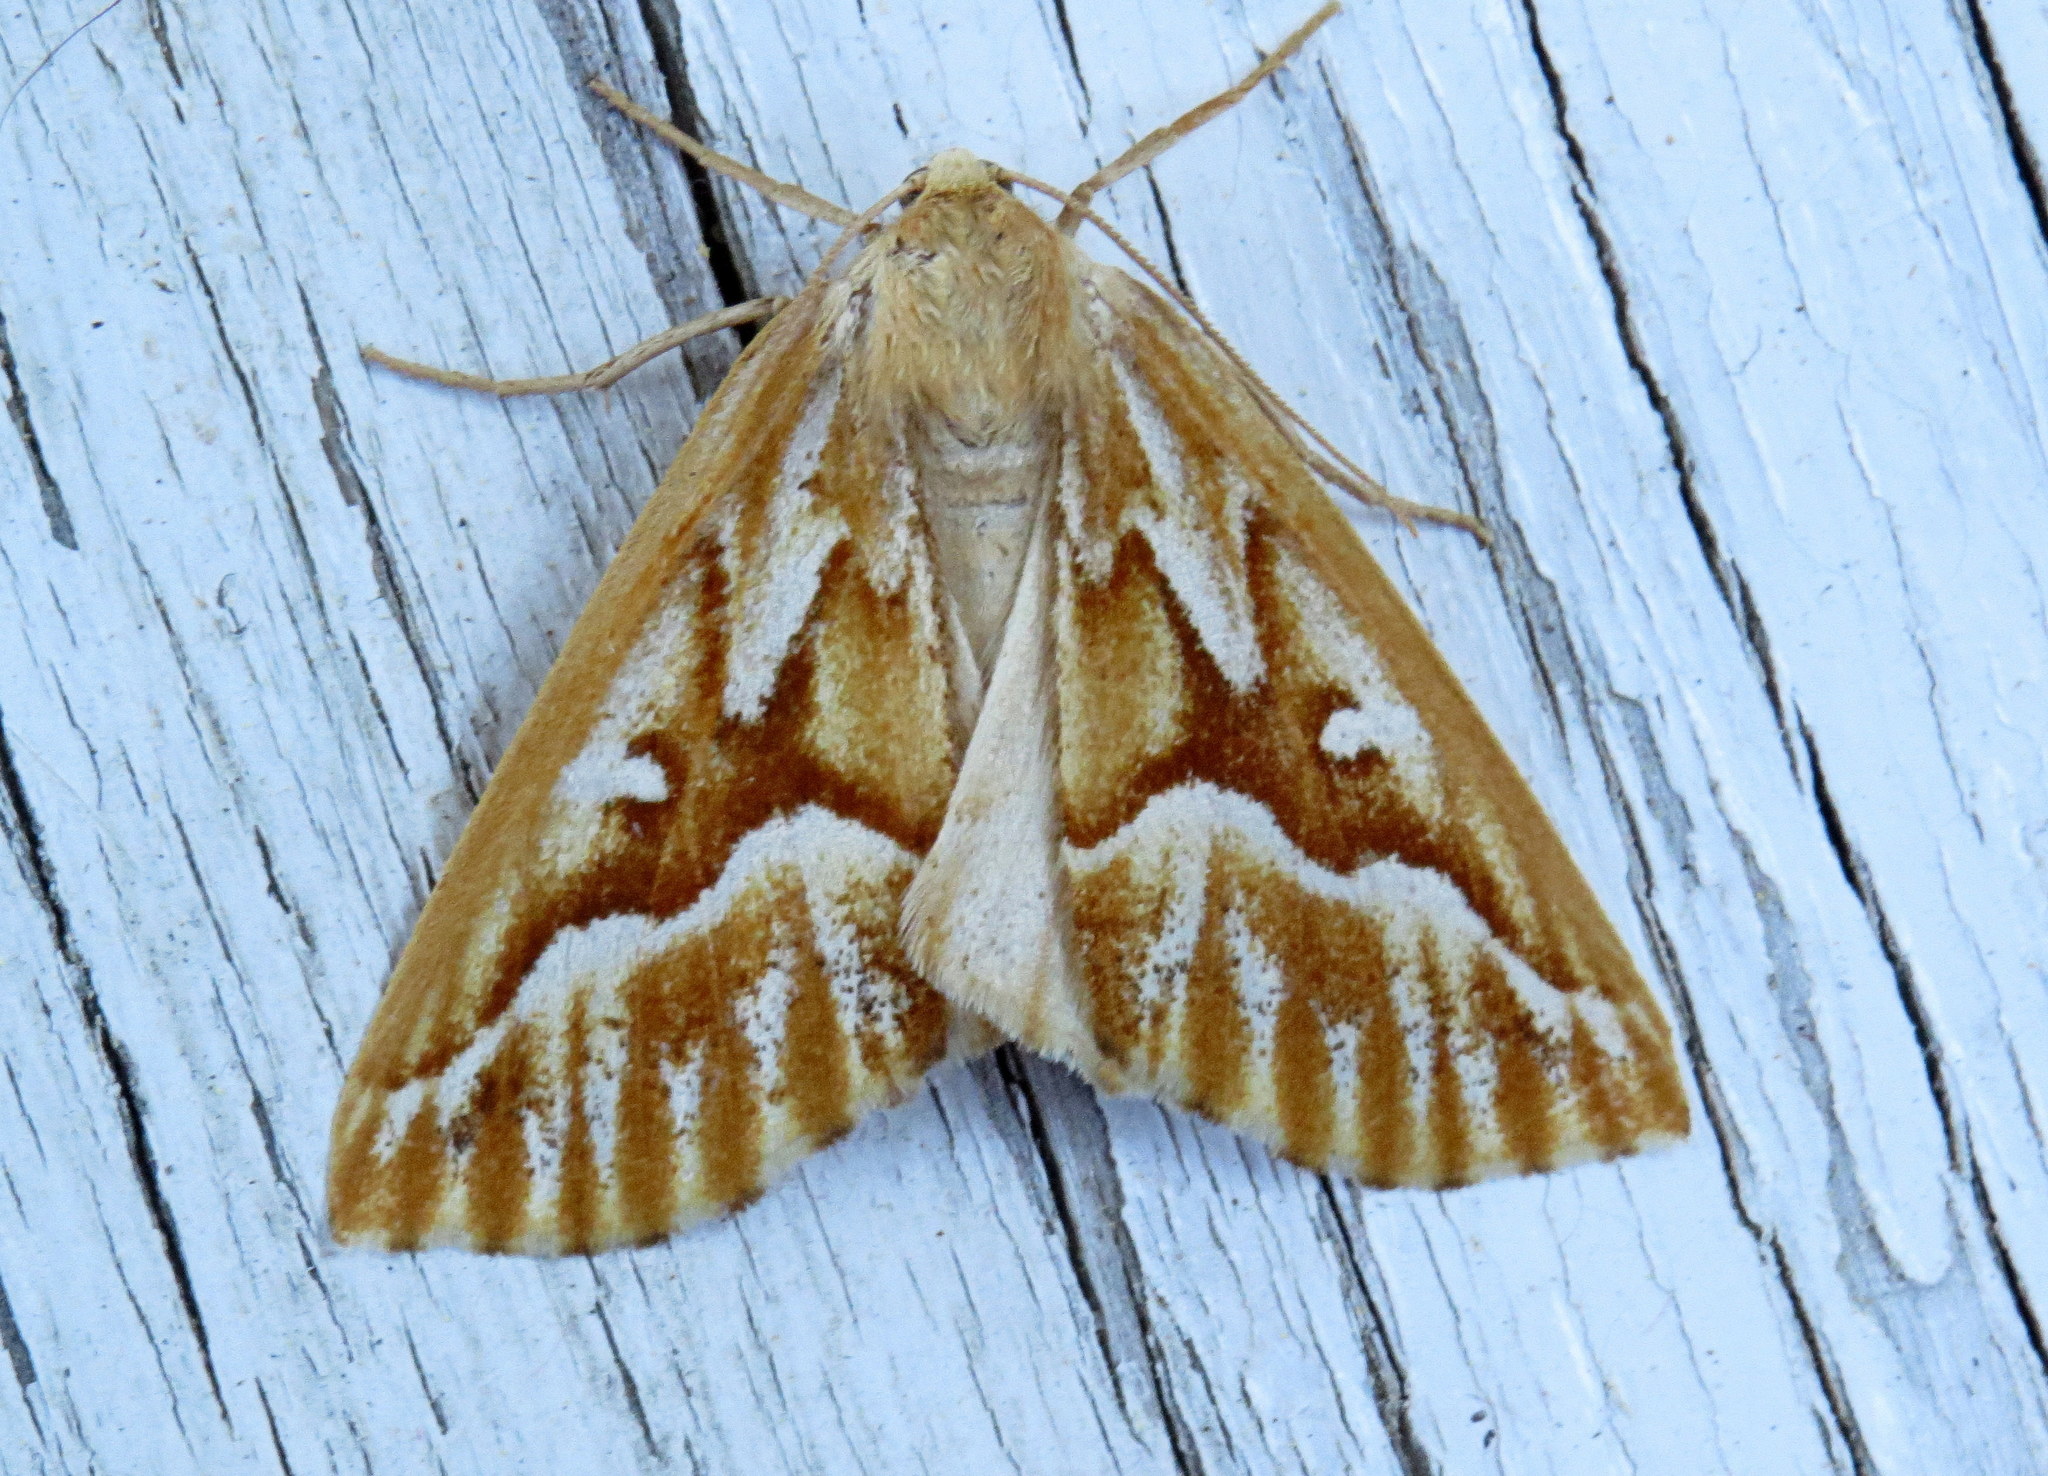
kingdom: Animalia
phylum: Arthropoda
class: Insecta
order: Lepidoptera
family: Geometridae
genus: Caripeta
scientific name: Caripeta piniata
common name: Northern pine looper moth
